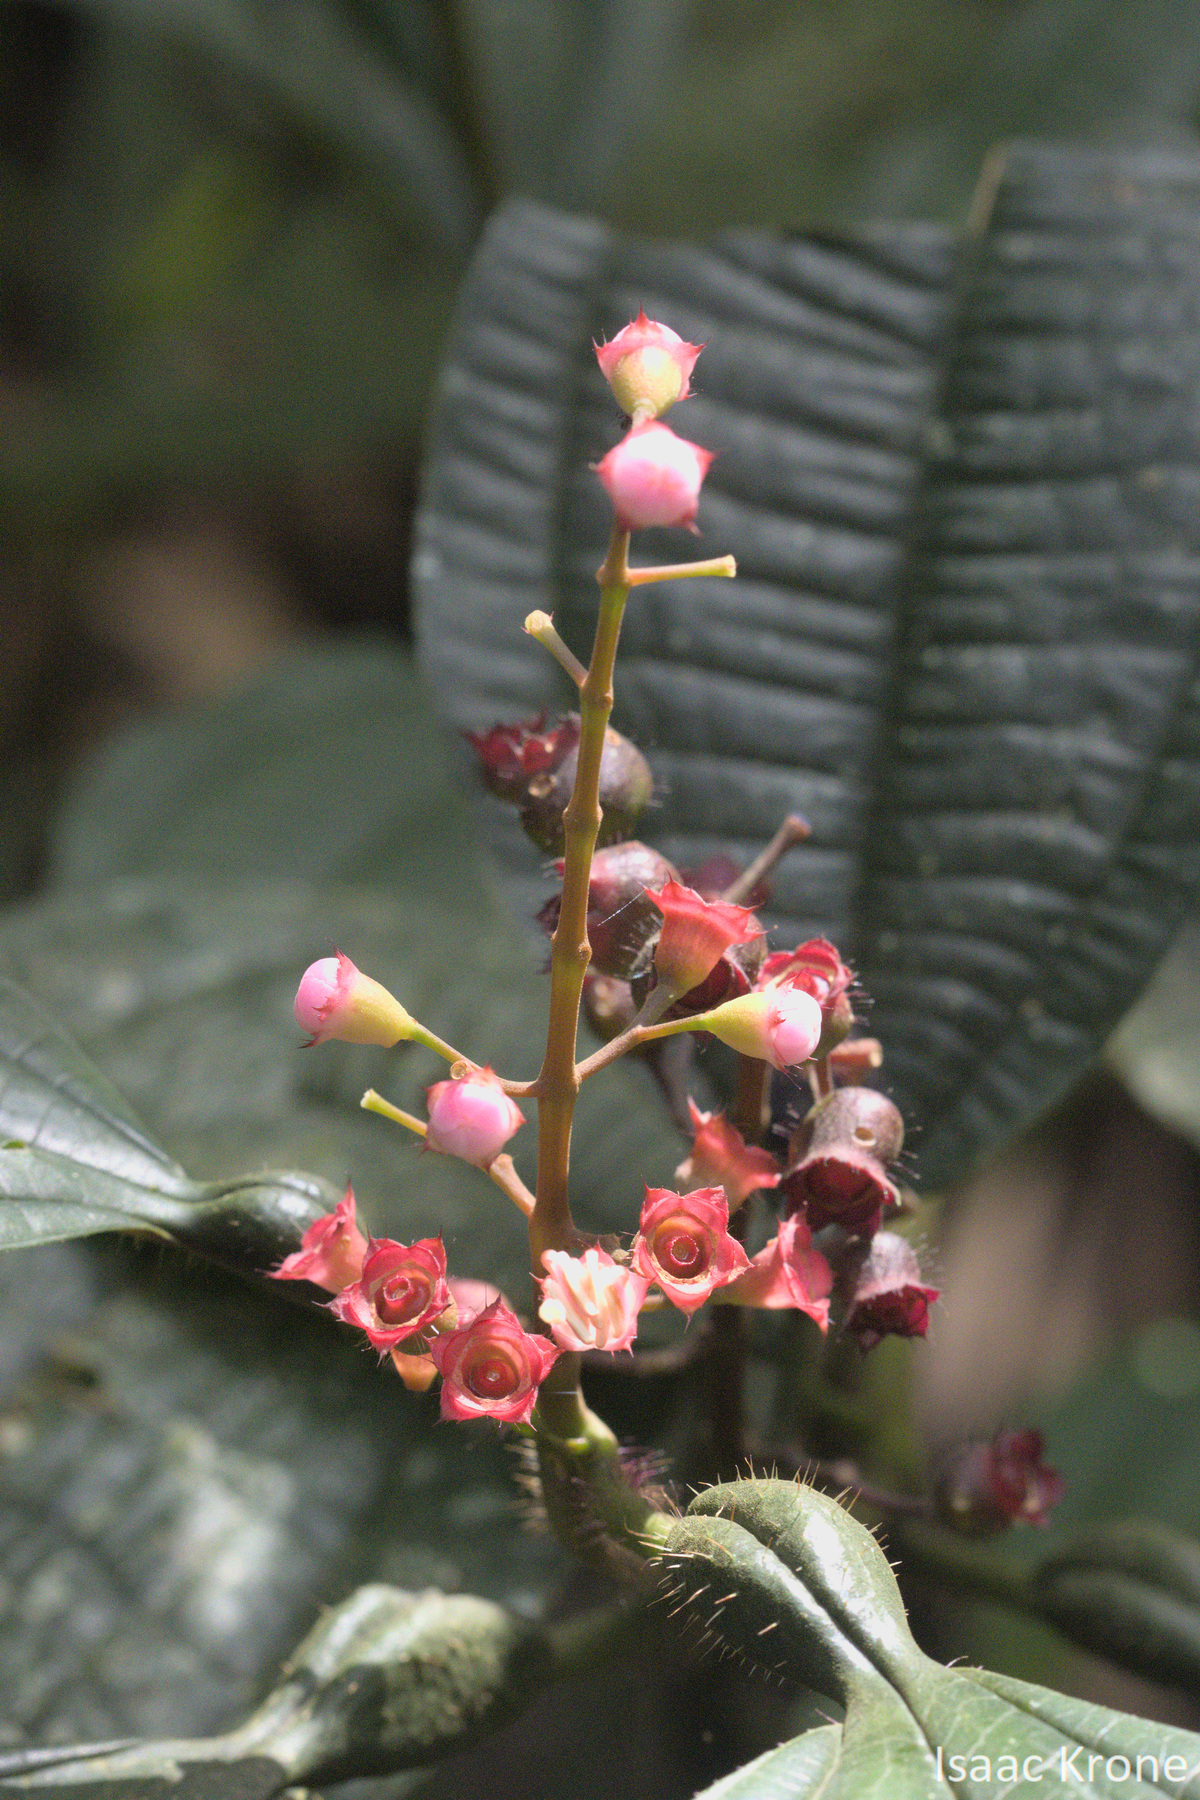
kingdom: Plantae
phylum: Tracheophyta
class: Magnoliopsida
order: Myrtales
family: Melastomataceae
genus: Miconia
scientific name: Miconia bullifera
